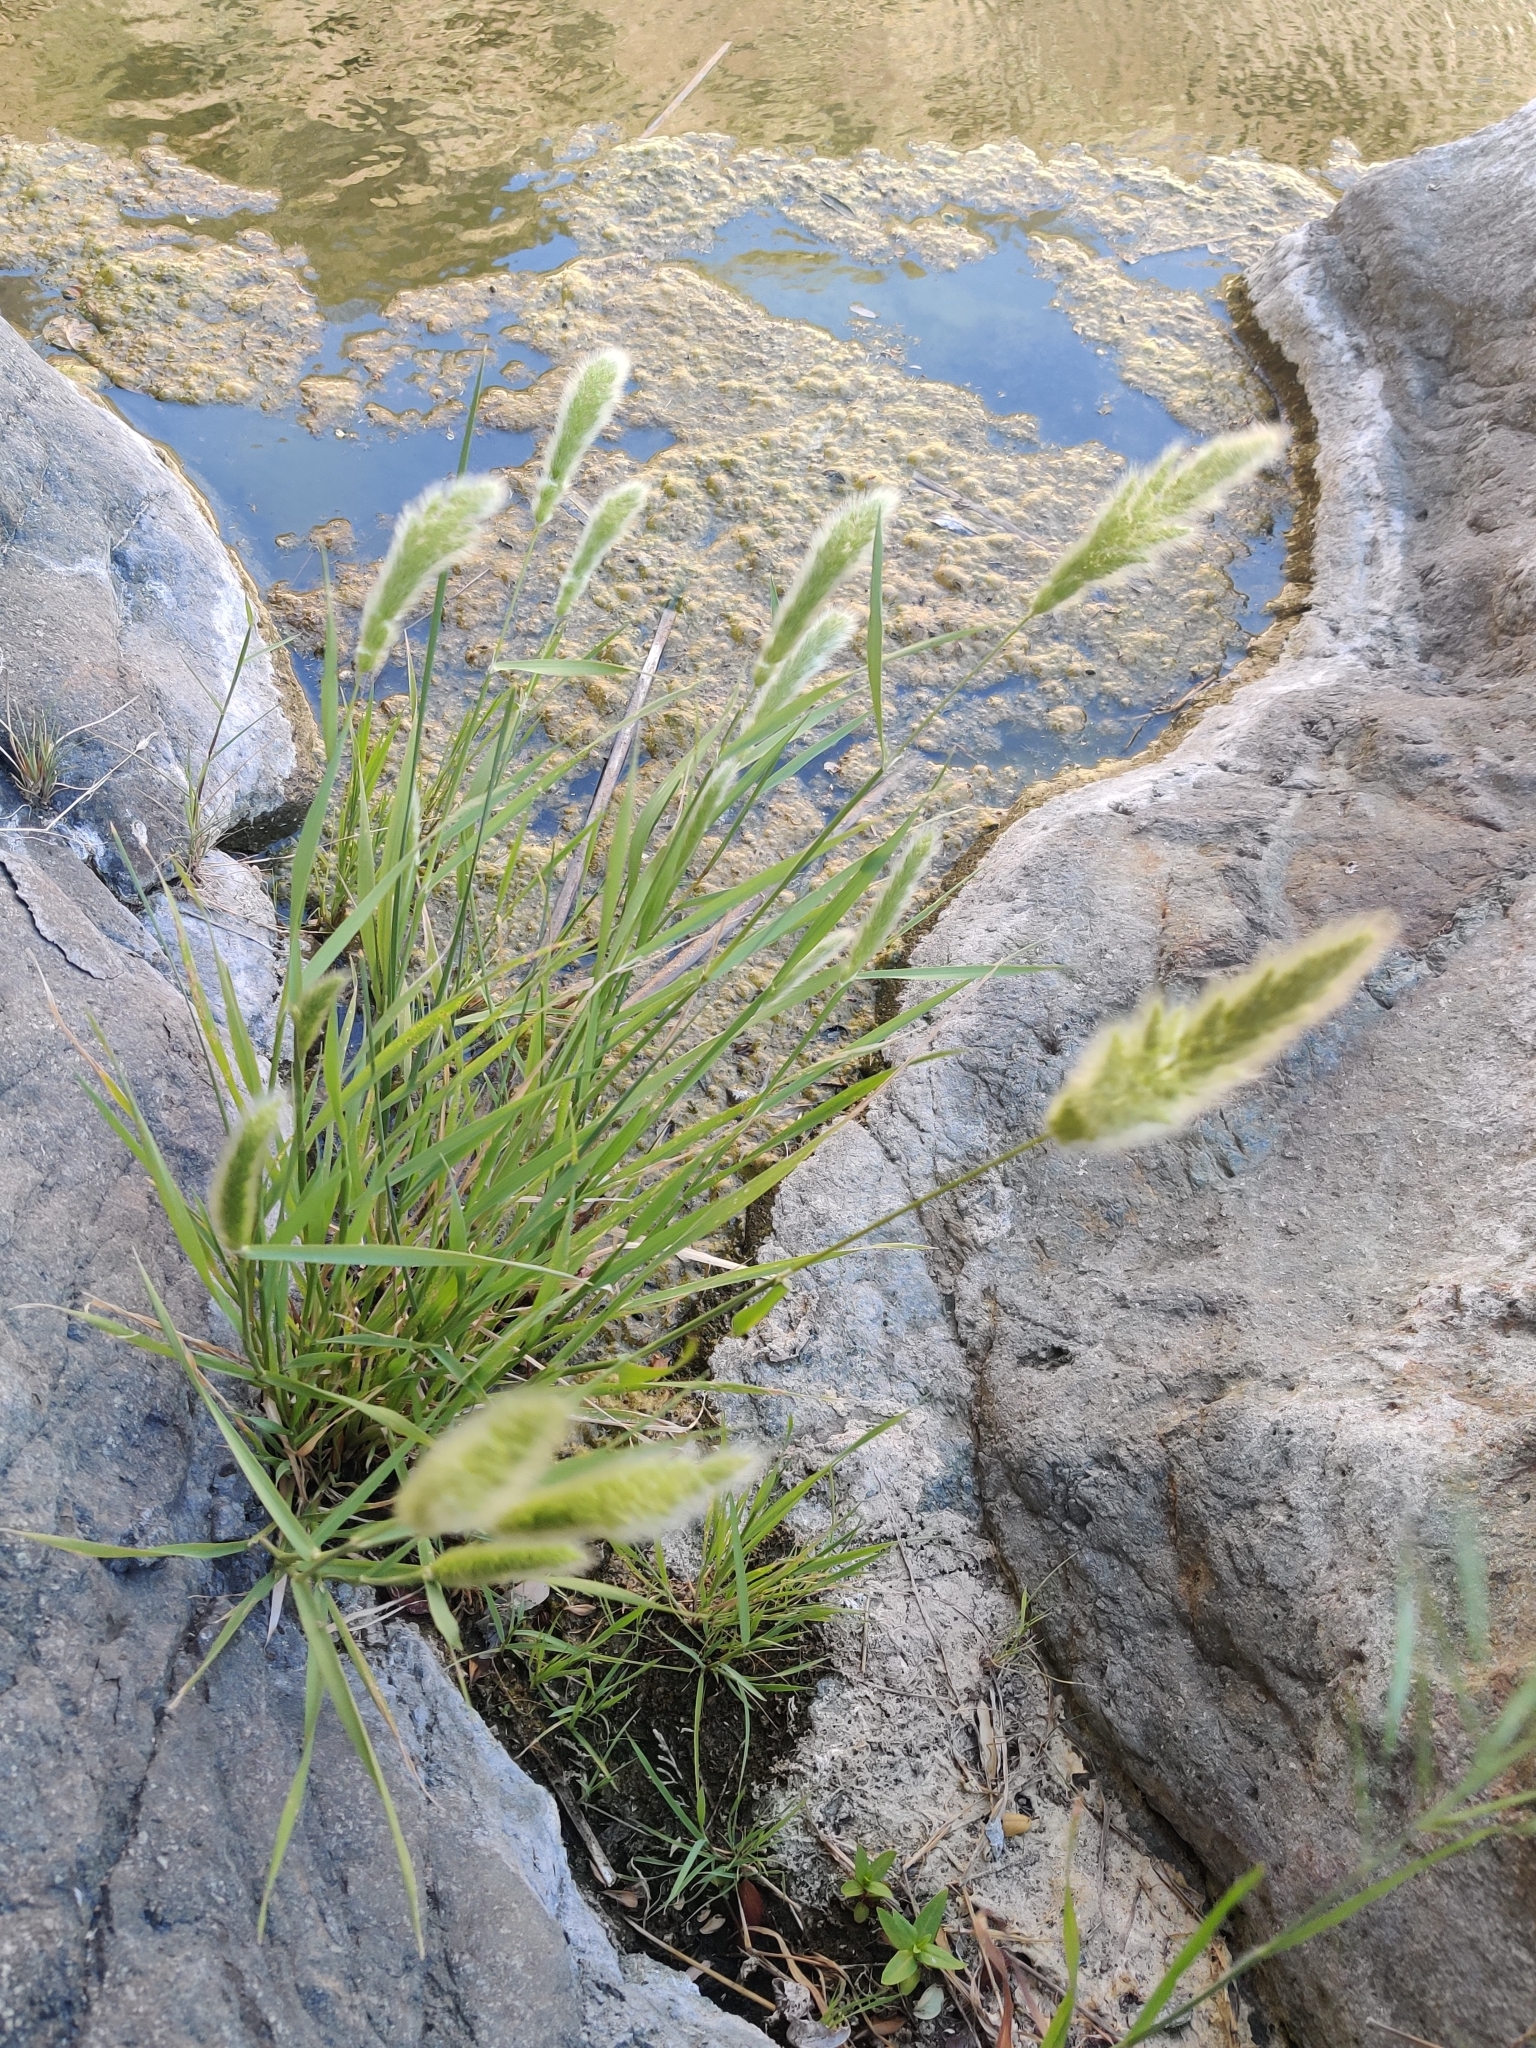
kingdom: Plantae
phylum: Tracheophyta
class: Liliopsida
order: Poales
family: Poaceae
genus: Polypogon
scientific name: Polypogon monspeliensis
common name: Annual rabbitsfoot grass
